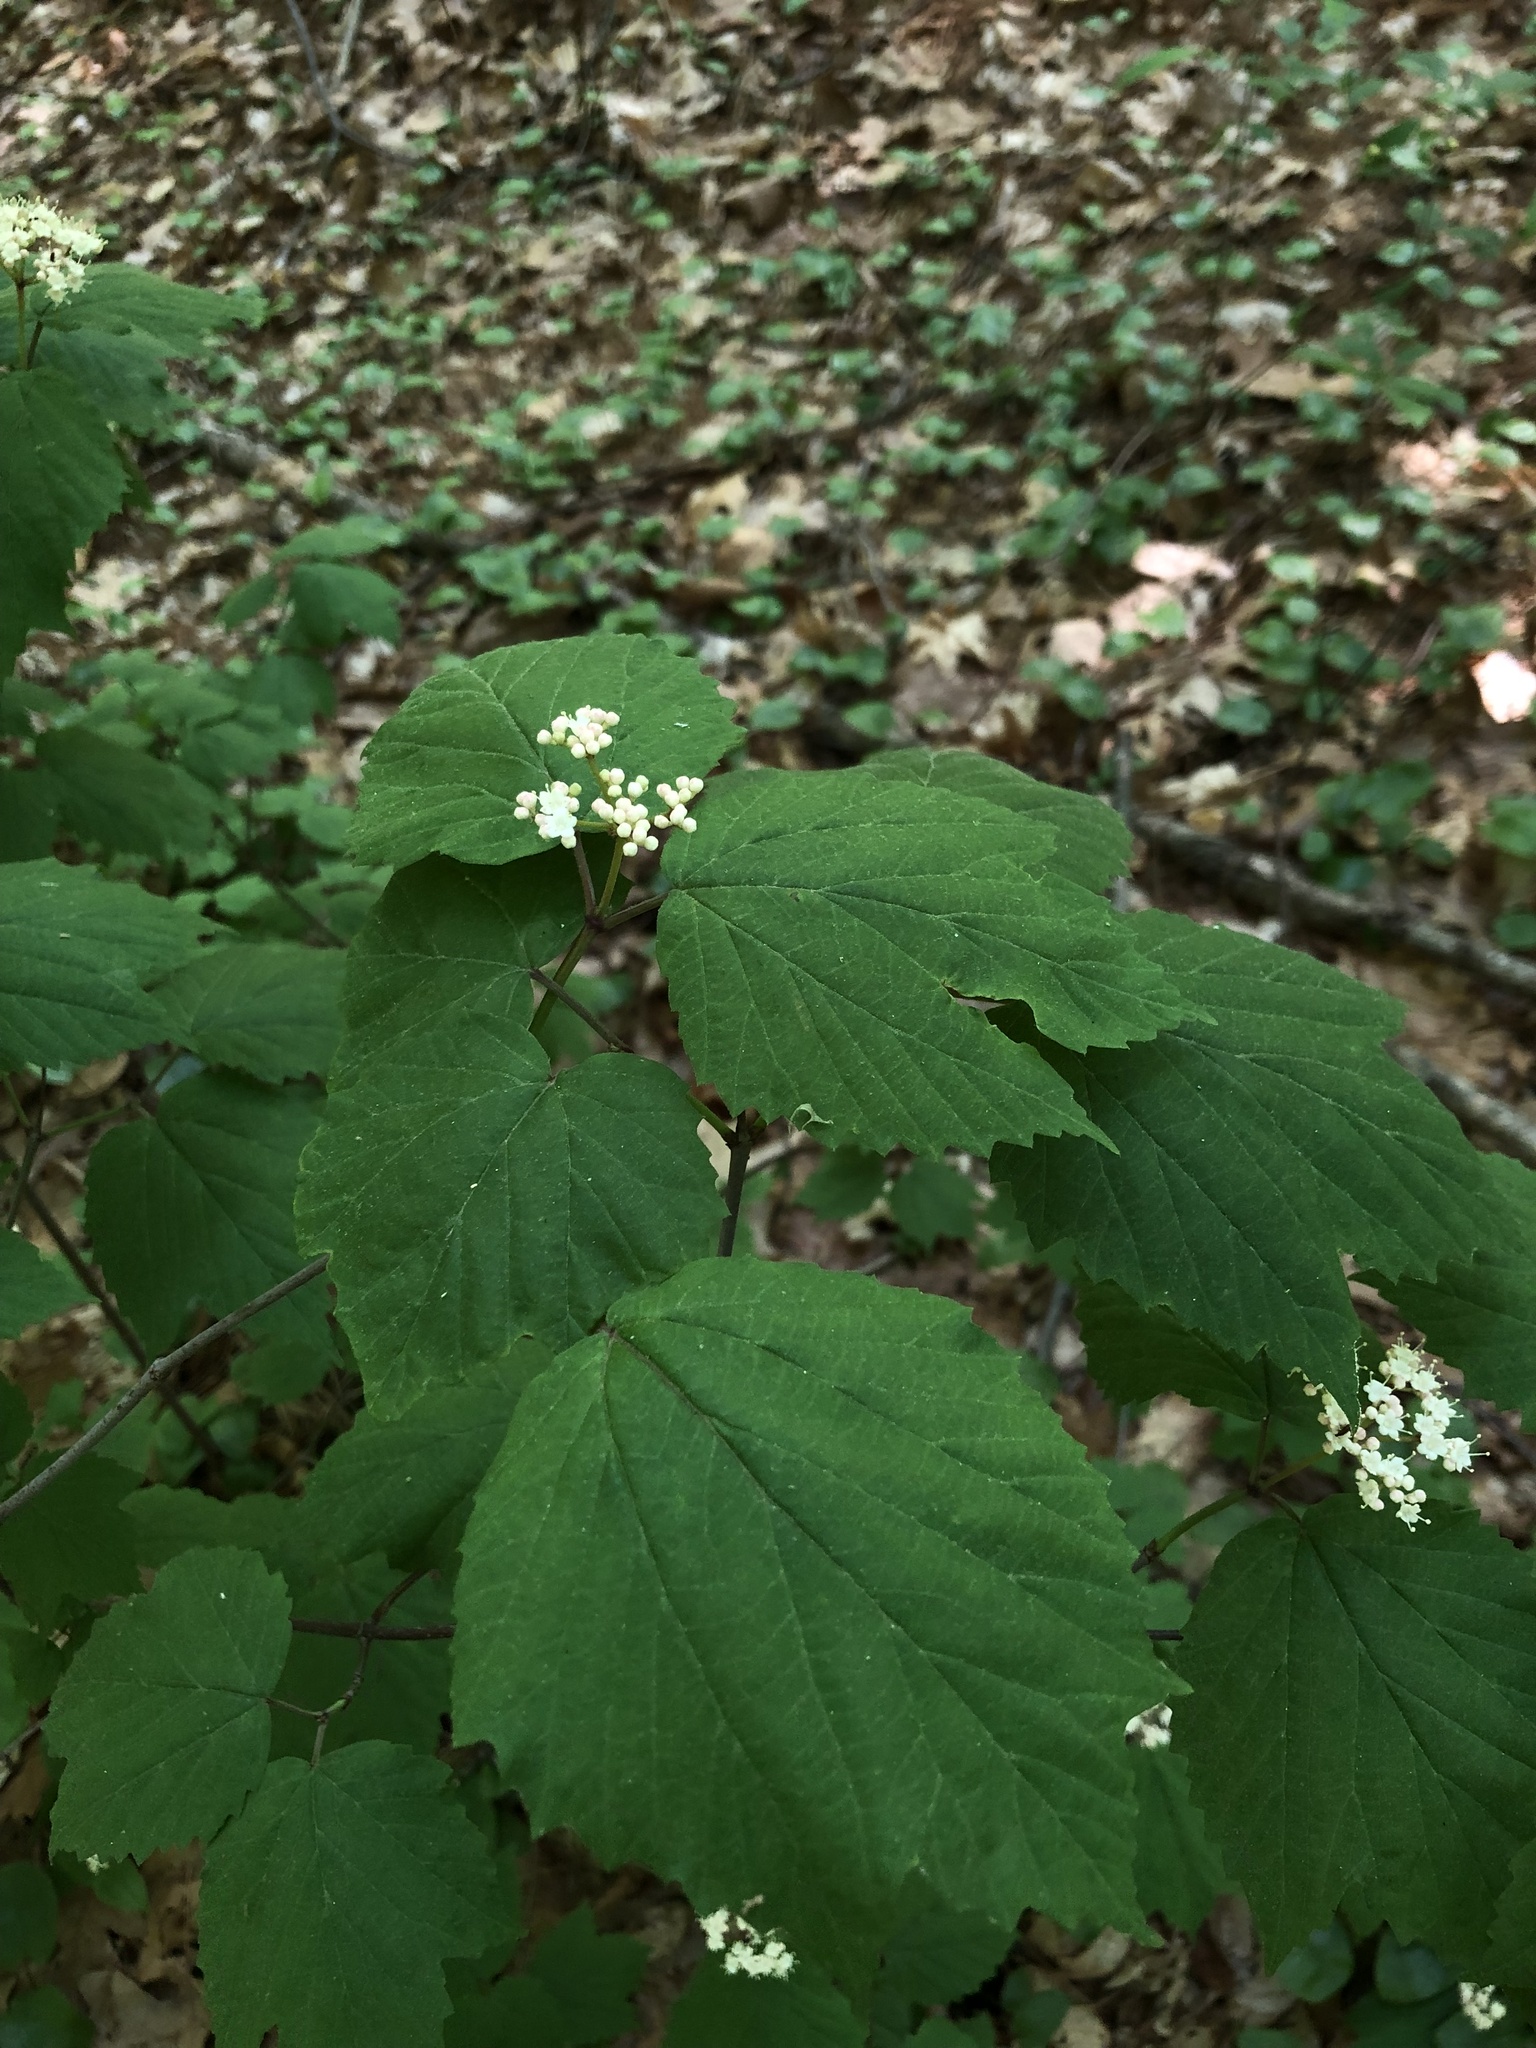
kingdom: Plantae
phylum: Tracheophyta
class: Magnoliopsida
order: Dipsacales
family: Viburnaceae
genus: Viburnum
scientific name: Viburnum acerifolium
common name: Dockmackie
